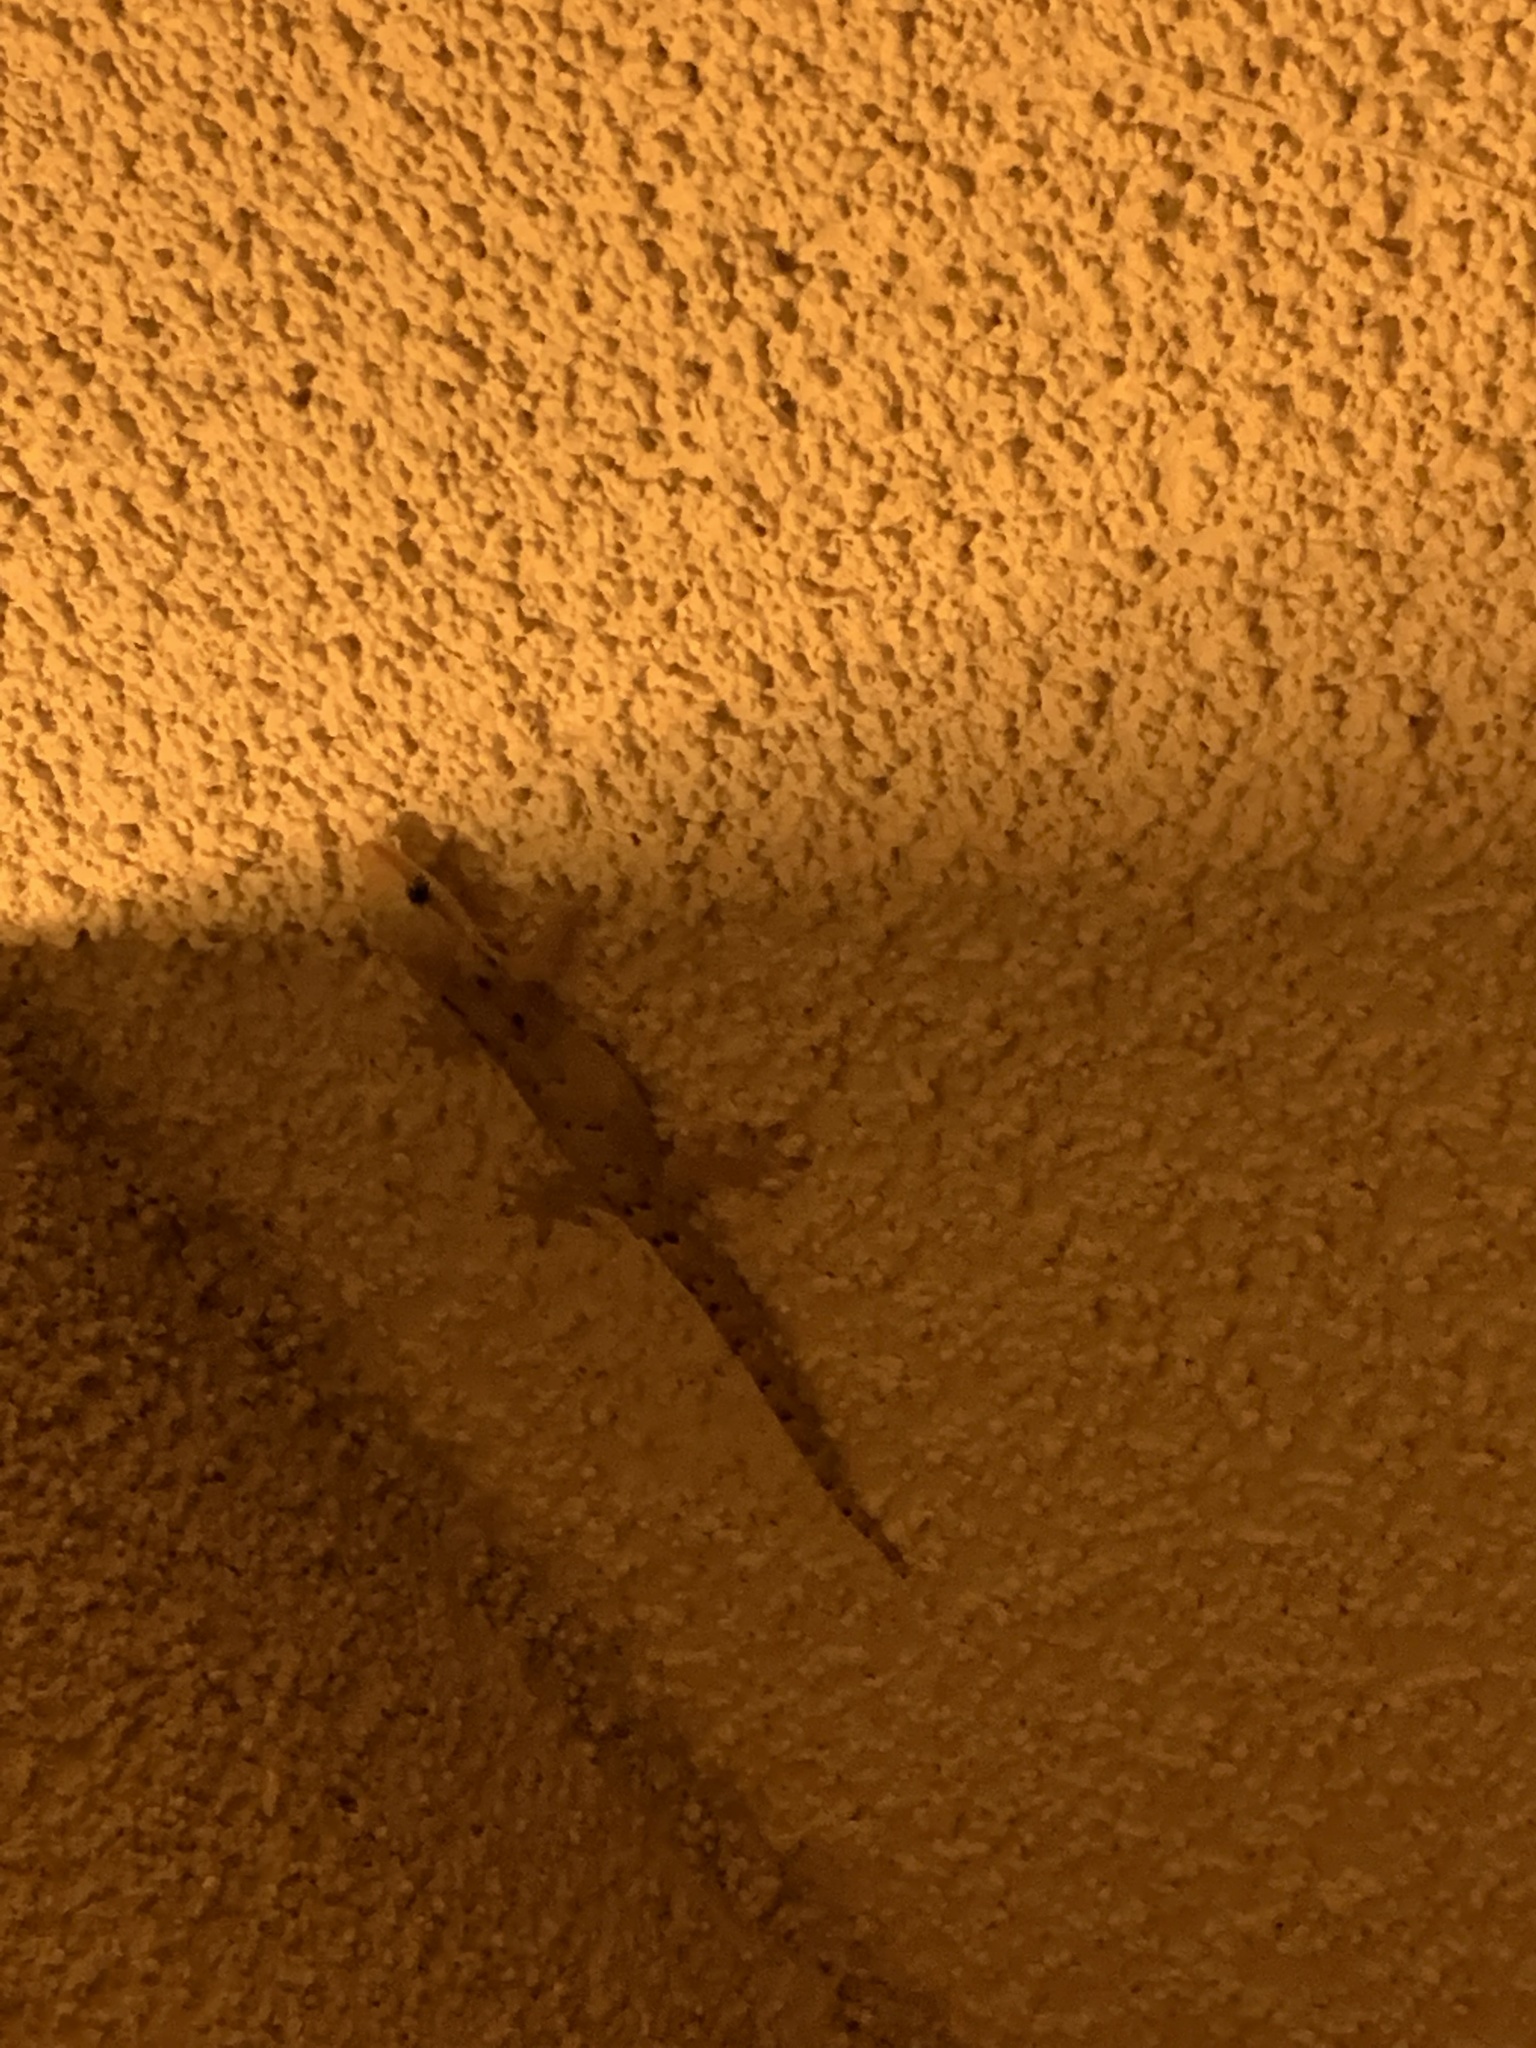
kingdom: Animalia
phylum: Chordata
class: Squamata
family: Gekkonidae
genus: Lepidodactylus
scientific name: Lepidodactylus lugubris
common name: Mourning gecko
